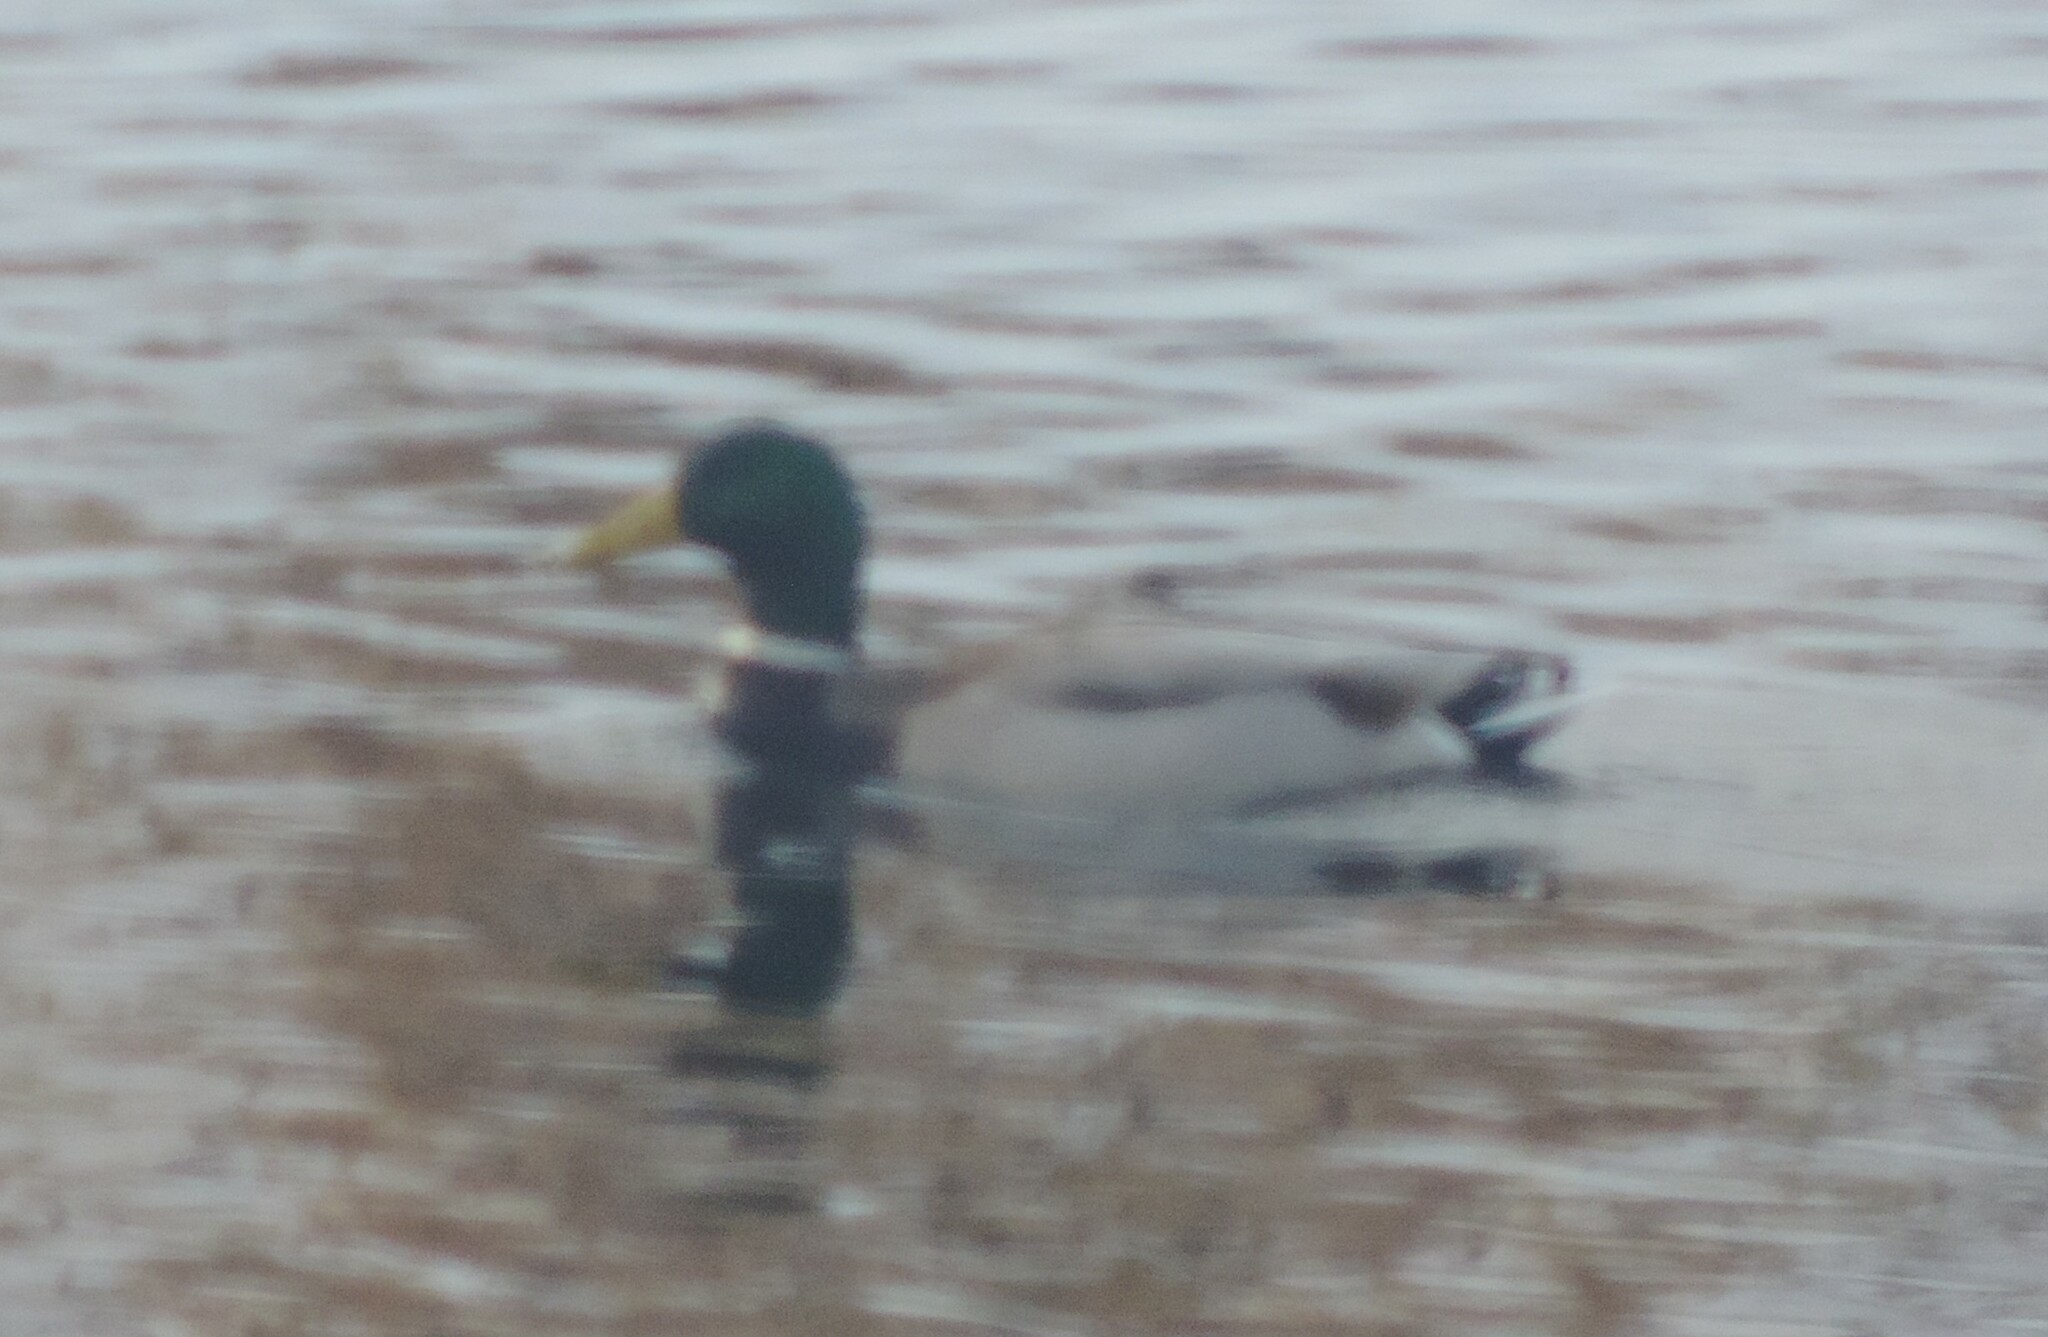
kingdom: Animalia
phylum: Chordata
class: Aves
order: Anseriformes
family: Anatidae
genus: Anas
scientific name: Anas platyrhynchos
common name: Mallard
